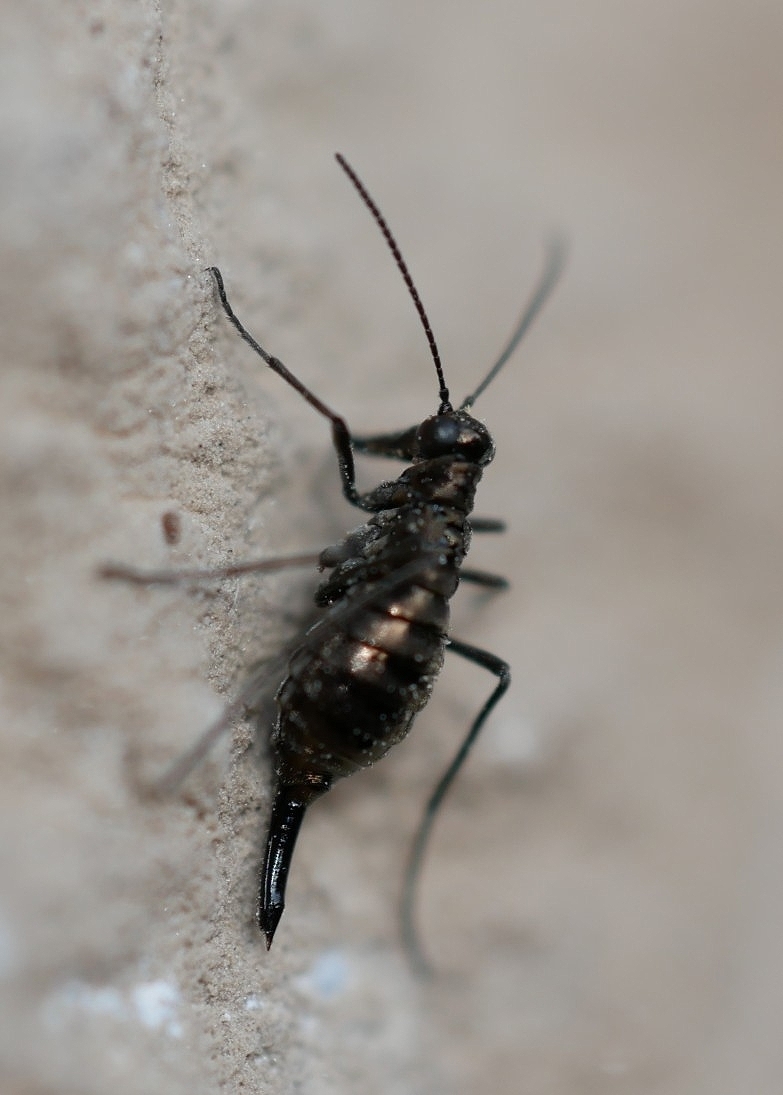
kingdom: Animalia
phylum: Arthropoda
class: Insecta
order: Mecoptera
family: Boreidae
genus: Boreus
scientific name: Boreus coloradensis
